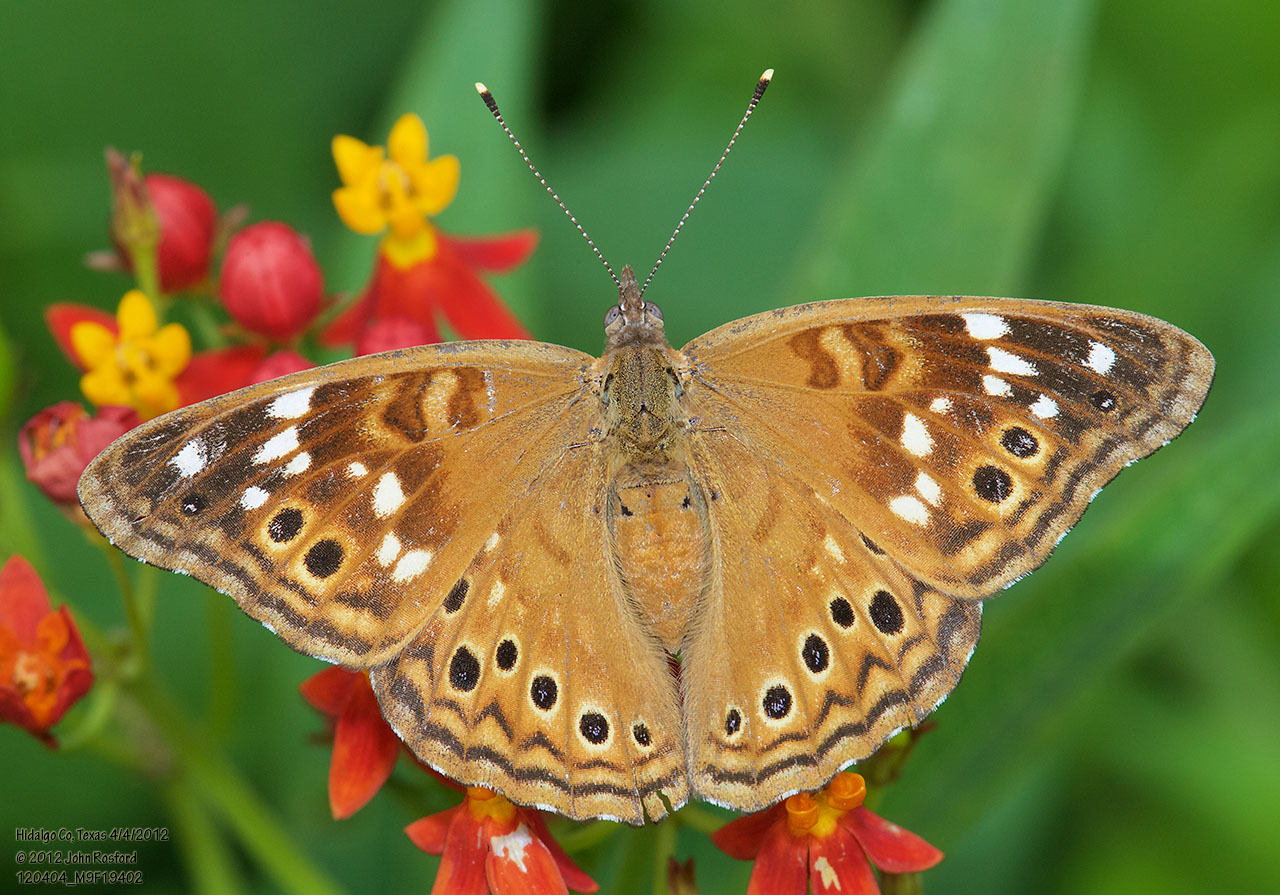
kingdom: Animalia
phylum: Arthropoda
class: Insecta
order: Lepidoptera
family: Nymphalidae
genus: Asterocampa
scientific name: Asterocampa leilia
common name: Empress leilia
